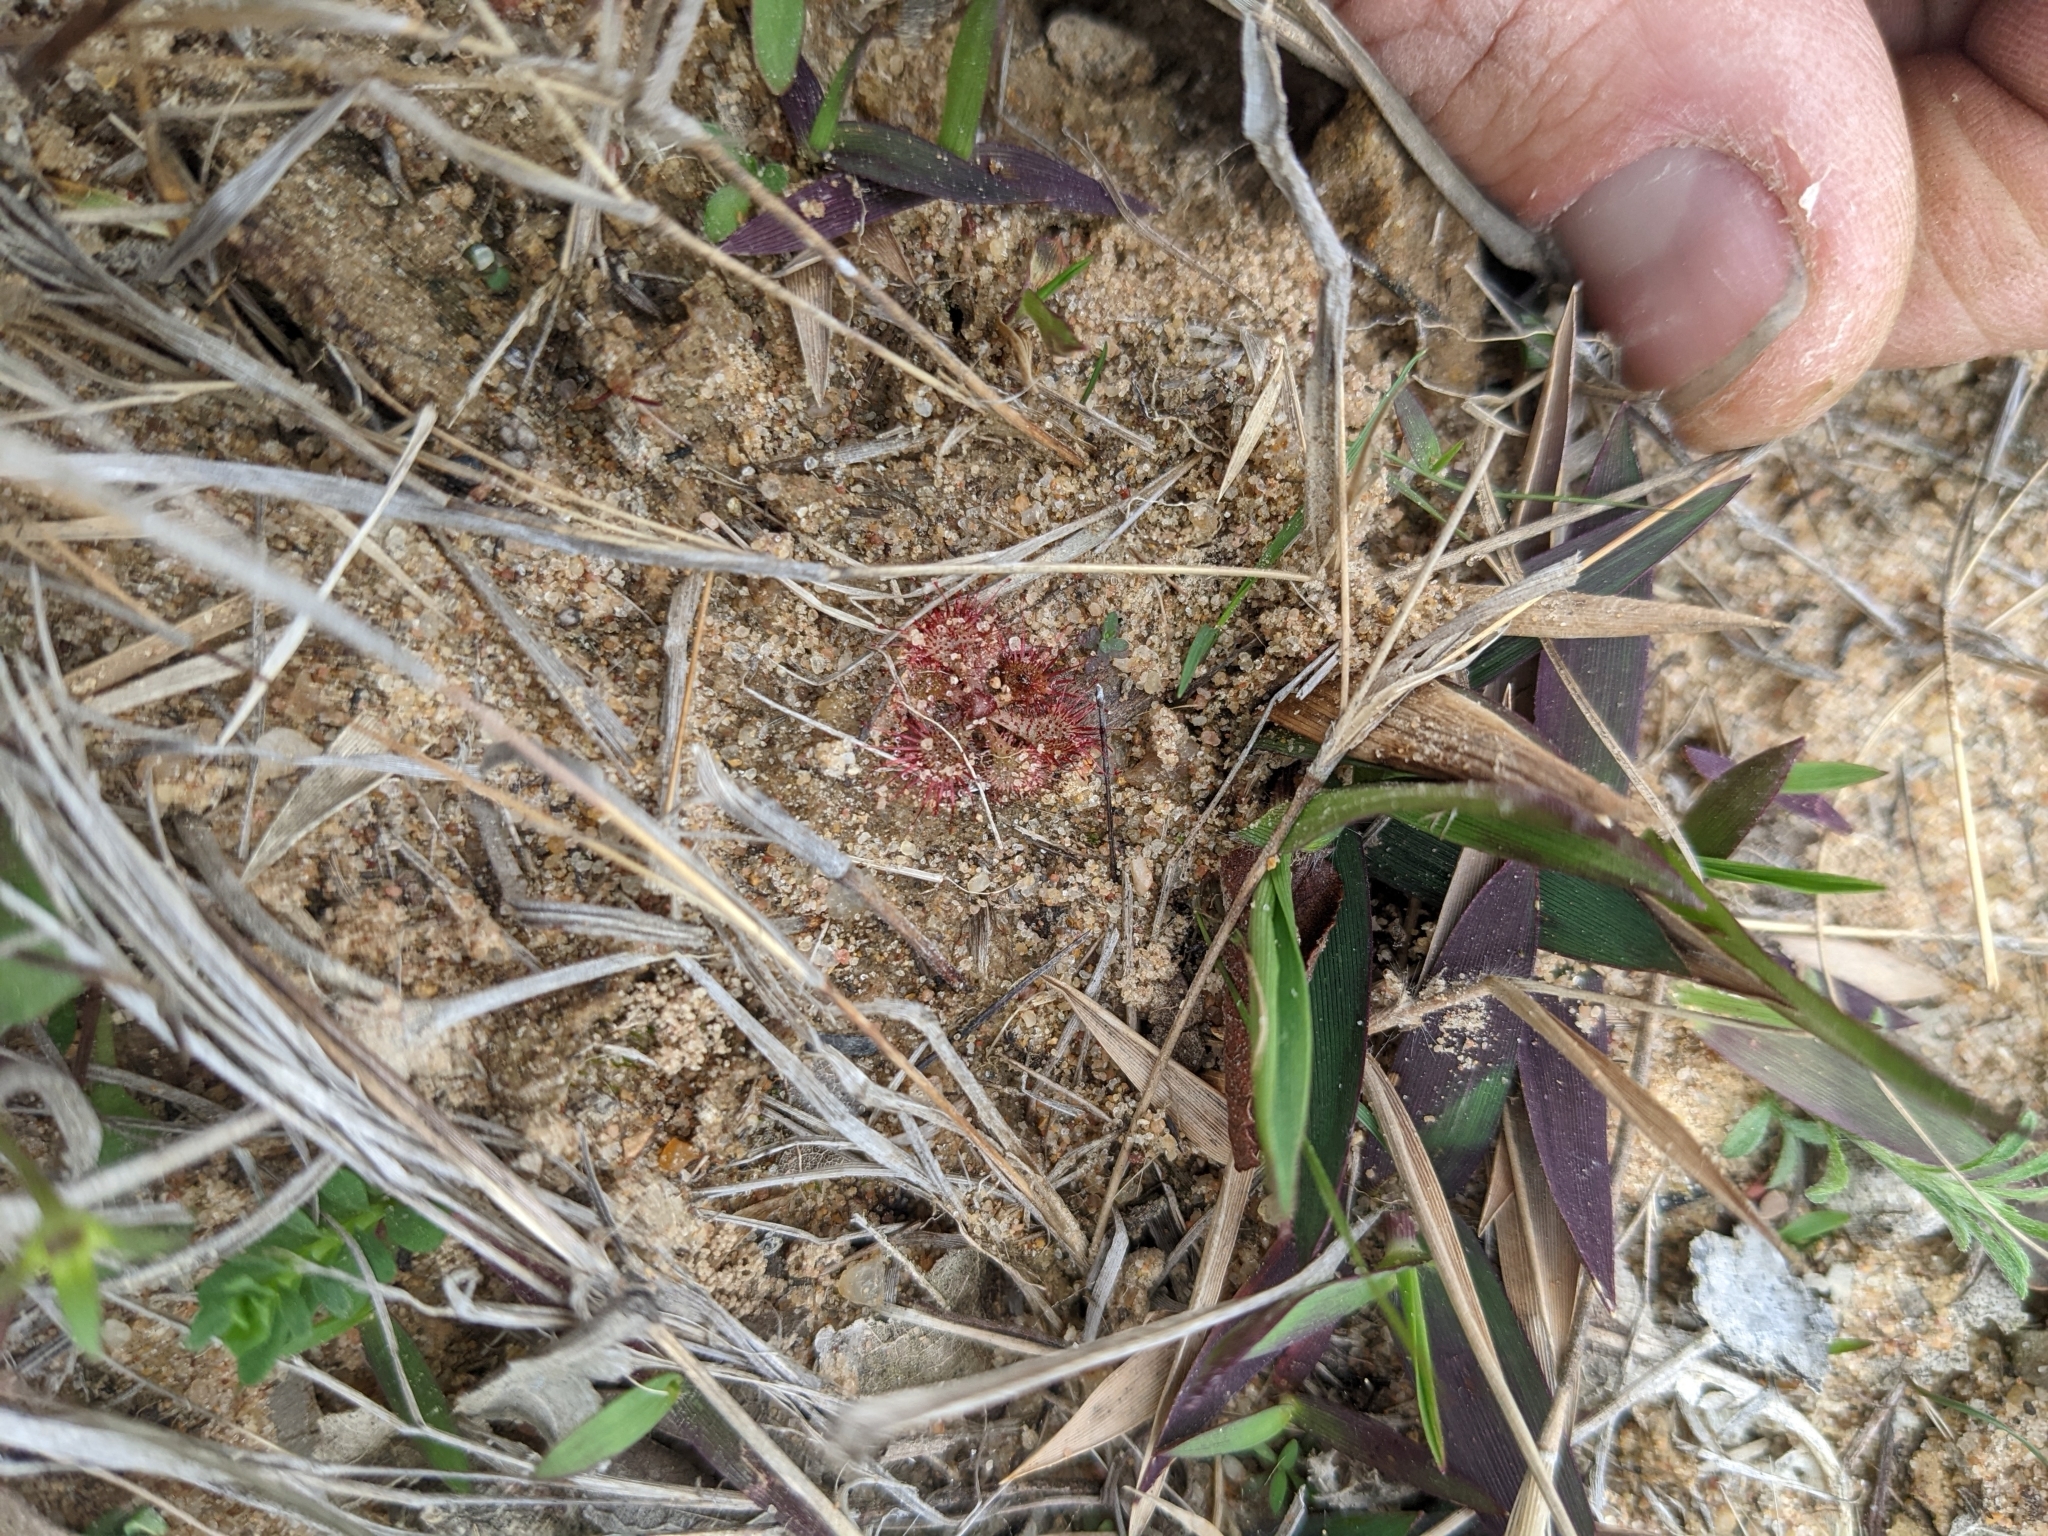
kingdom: Plantae
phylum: Tracheophyta
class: Magnoliopsida
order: Caryophyllales
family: Droseraceae
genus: Drosera
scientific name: Drosera brevifolia
